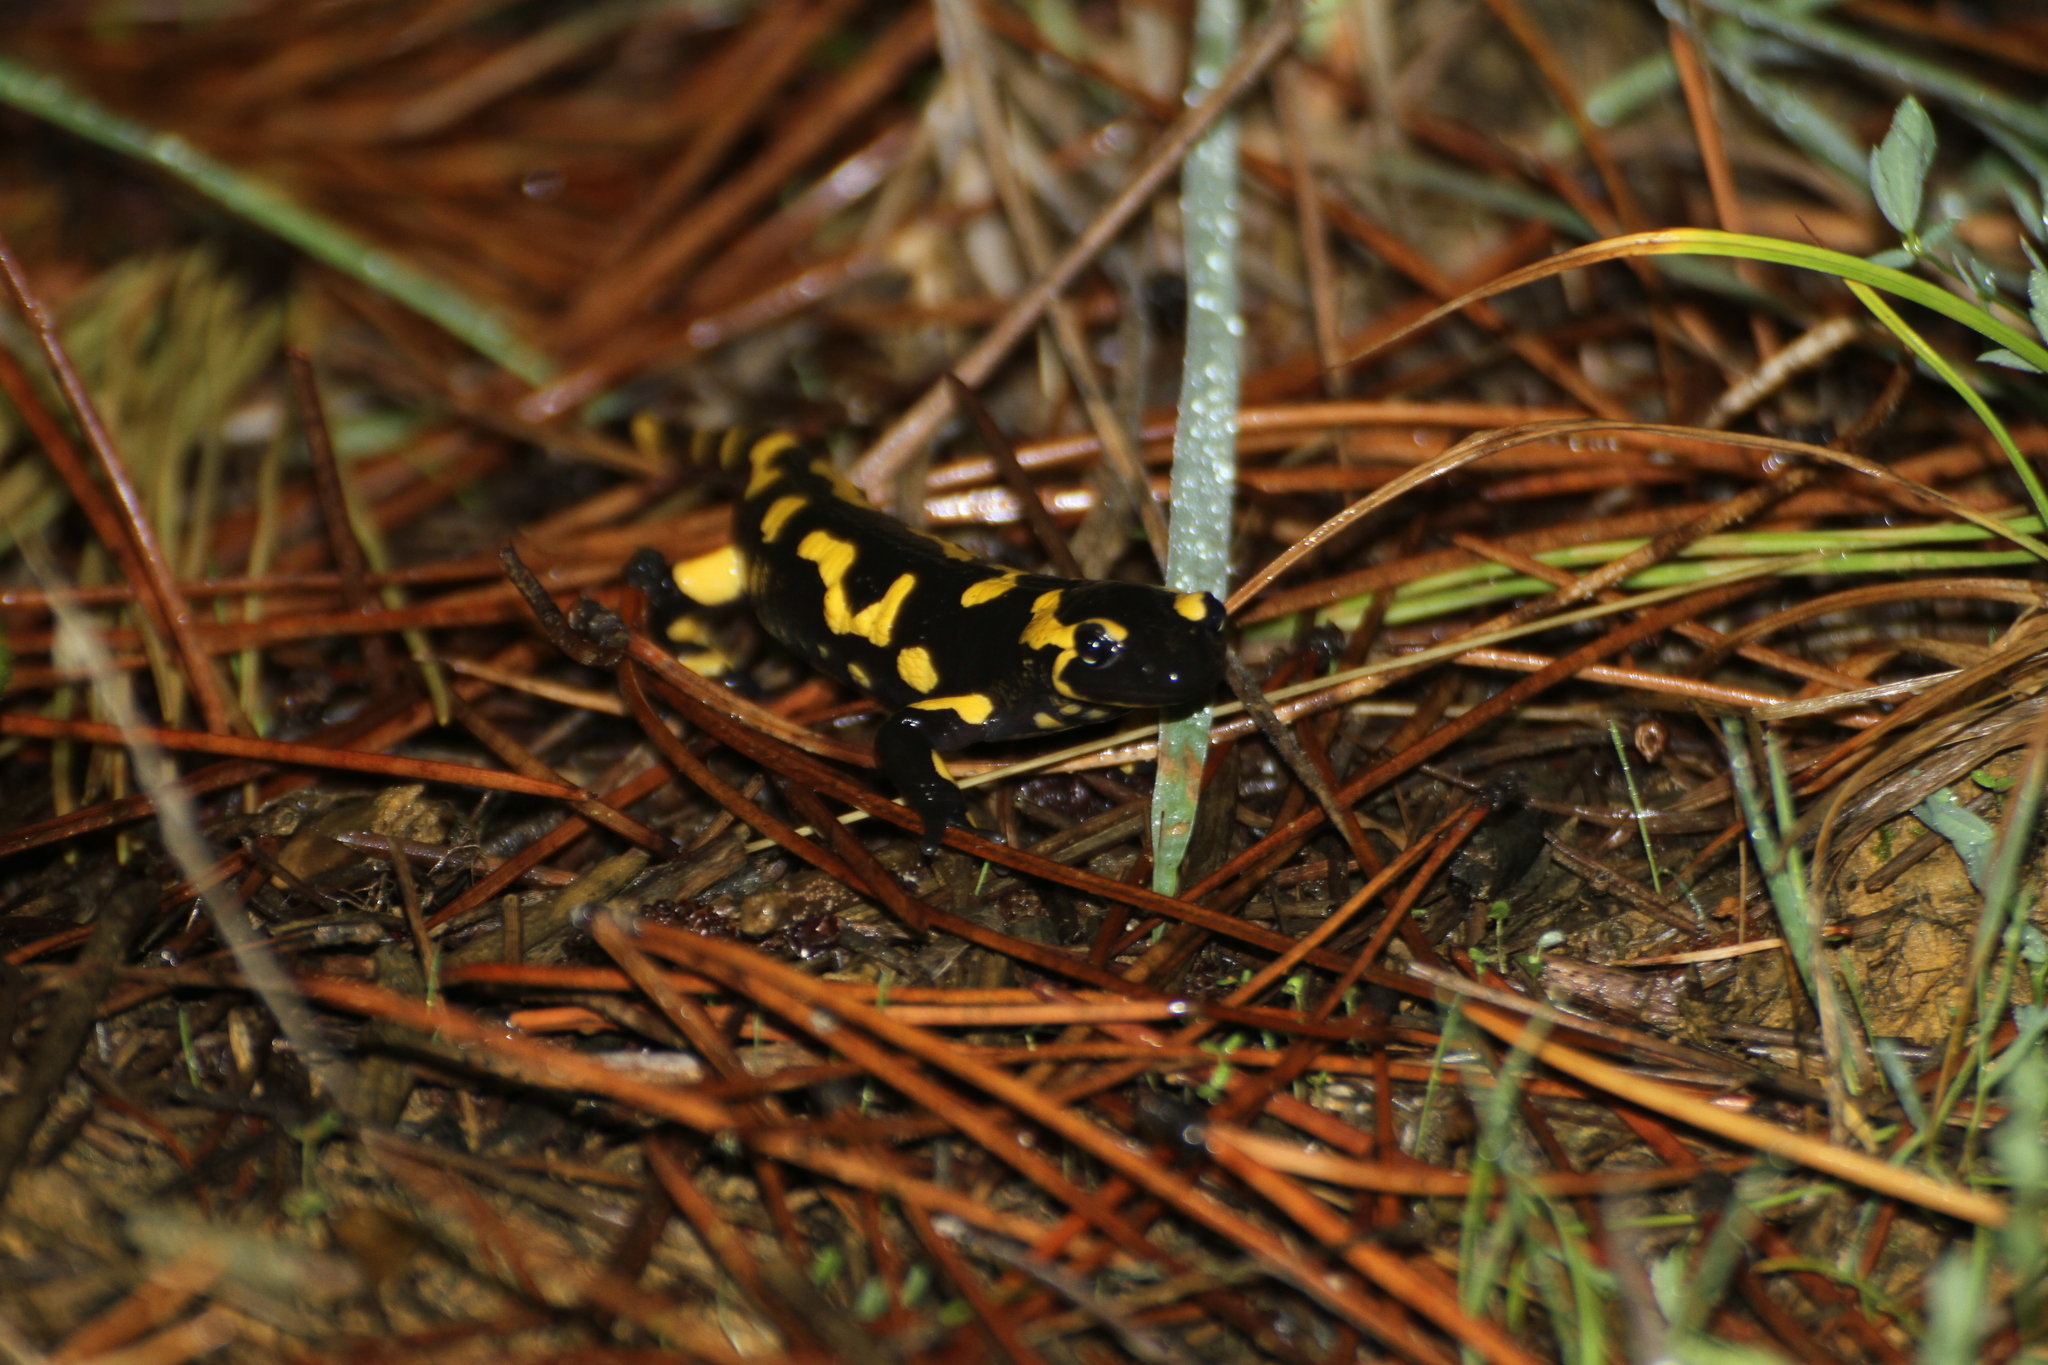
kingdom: Animalia
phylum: Chordata
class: Amphibia
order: Caudata
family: Salamandridae
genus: Salamandra
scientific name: Salamandra salamandra
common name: Fire salamander
